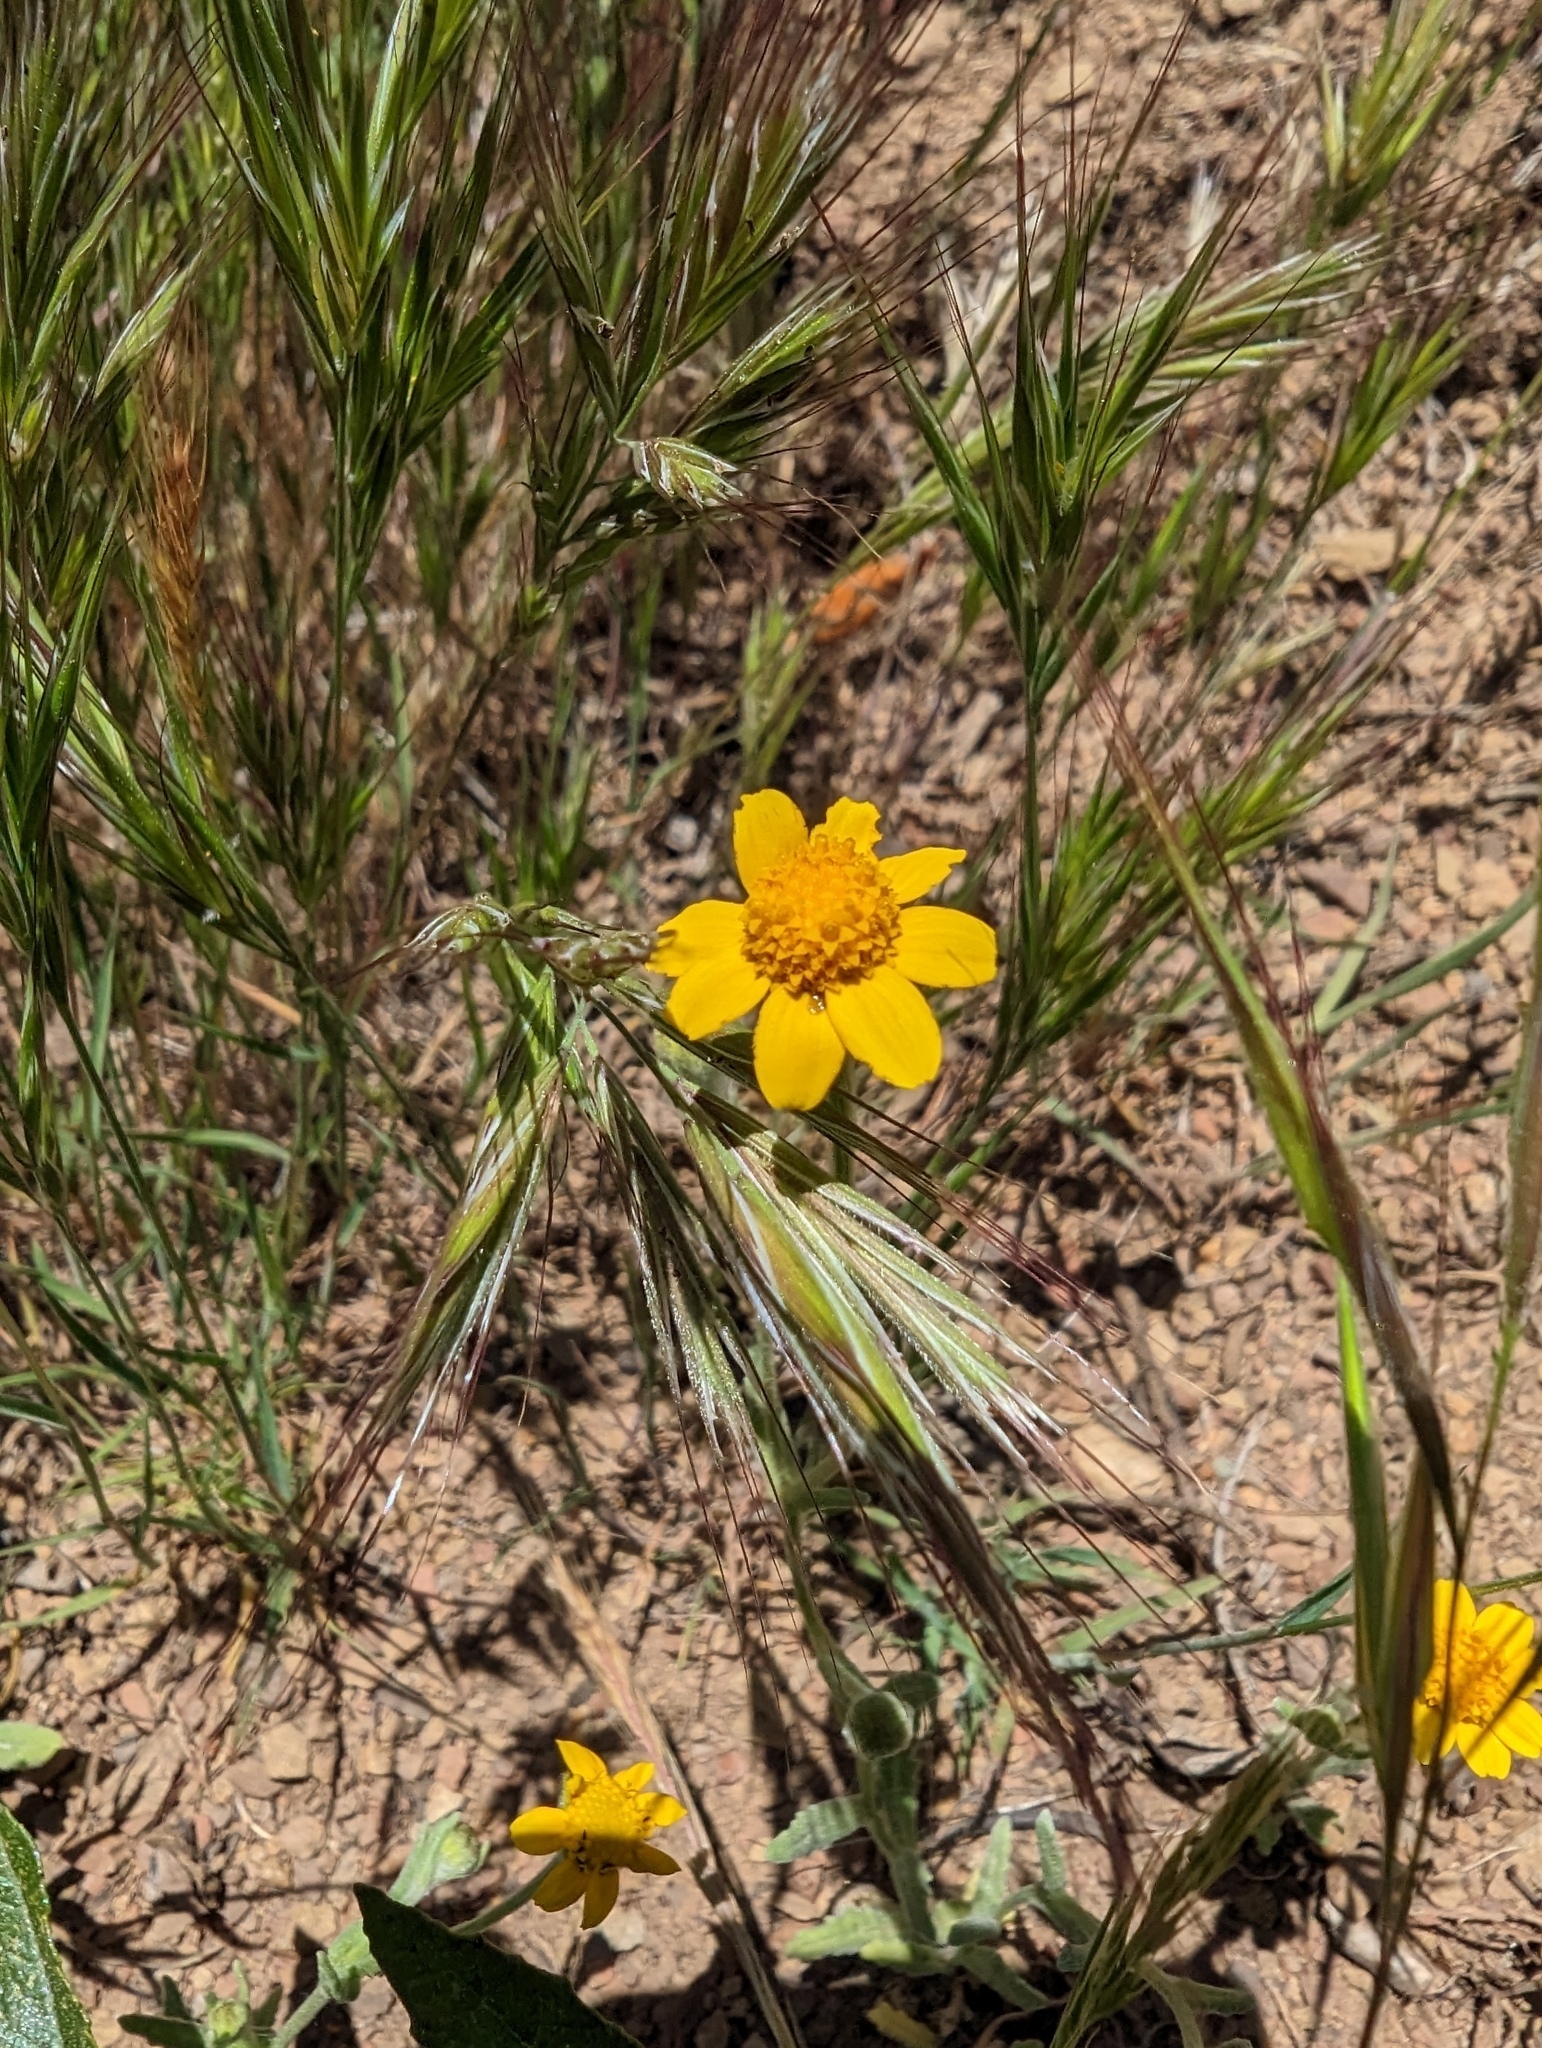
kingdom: Plantae
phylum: Tracheophyta
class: Magnoliopsida
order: Asterales
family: Asteraceae
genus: Monolopia
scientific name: Monolopia gracilens
